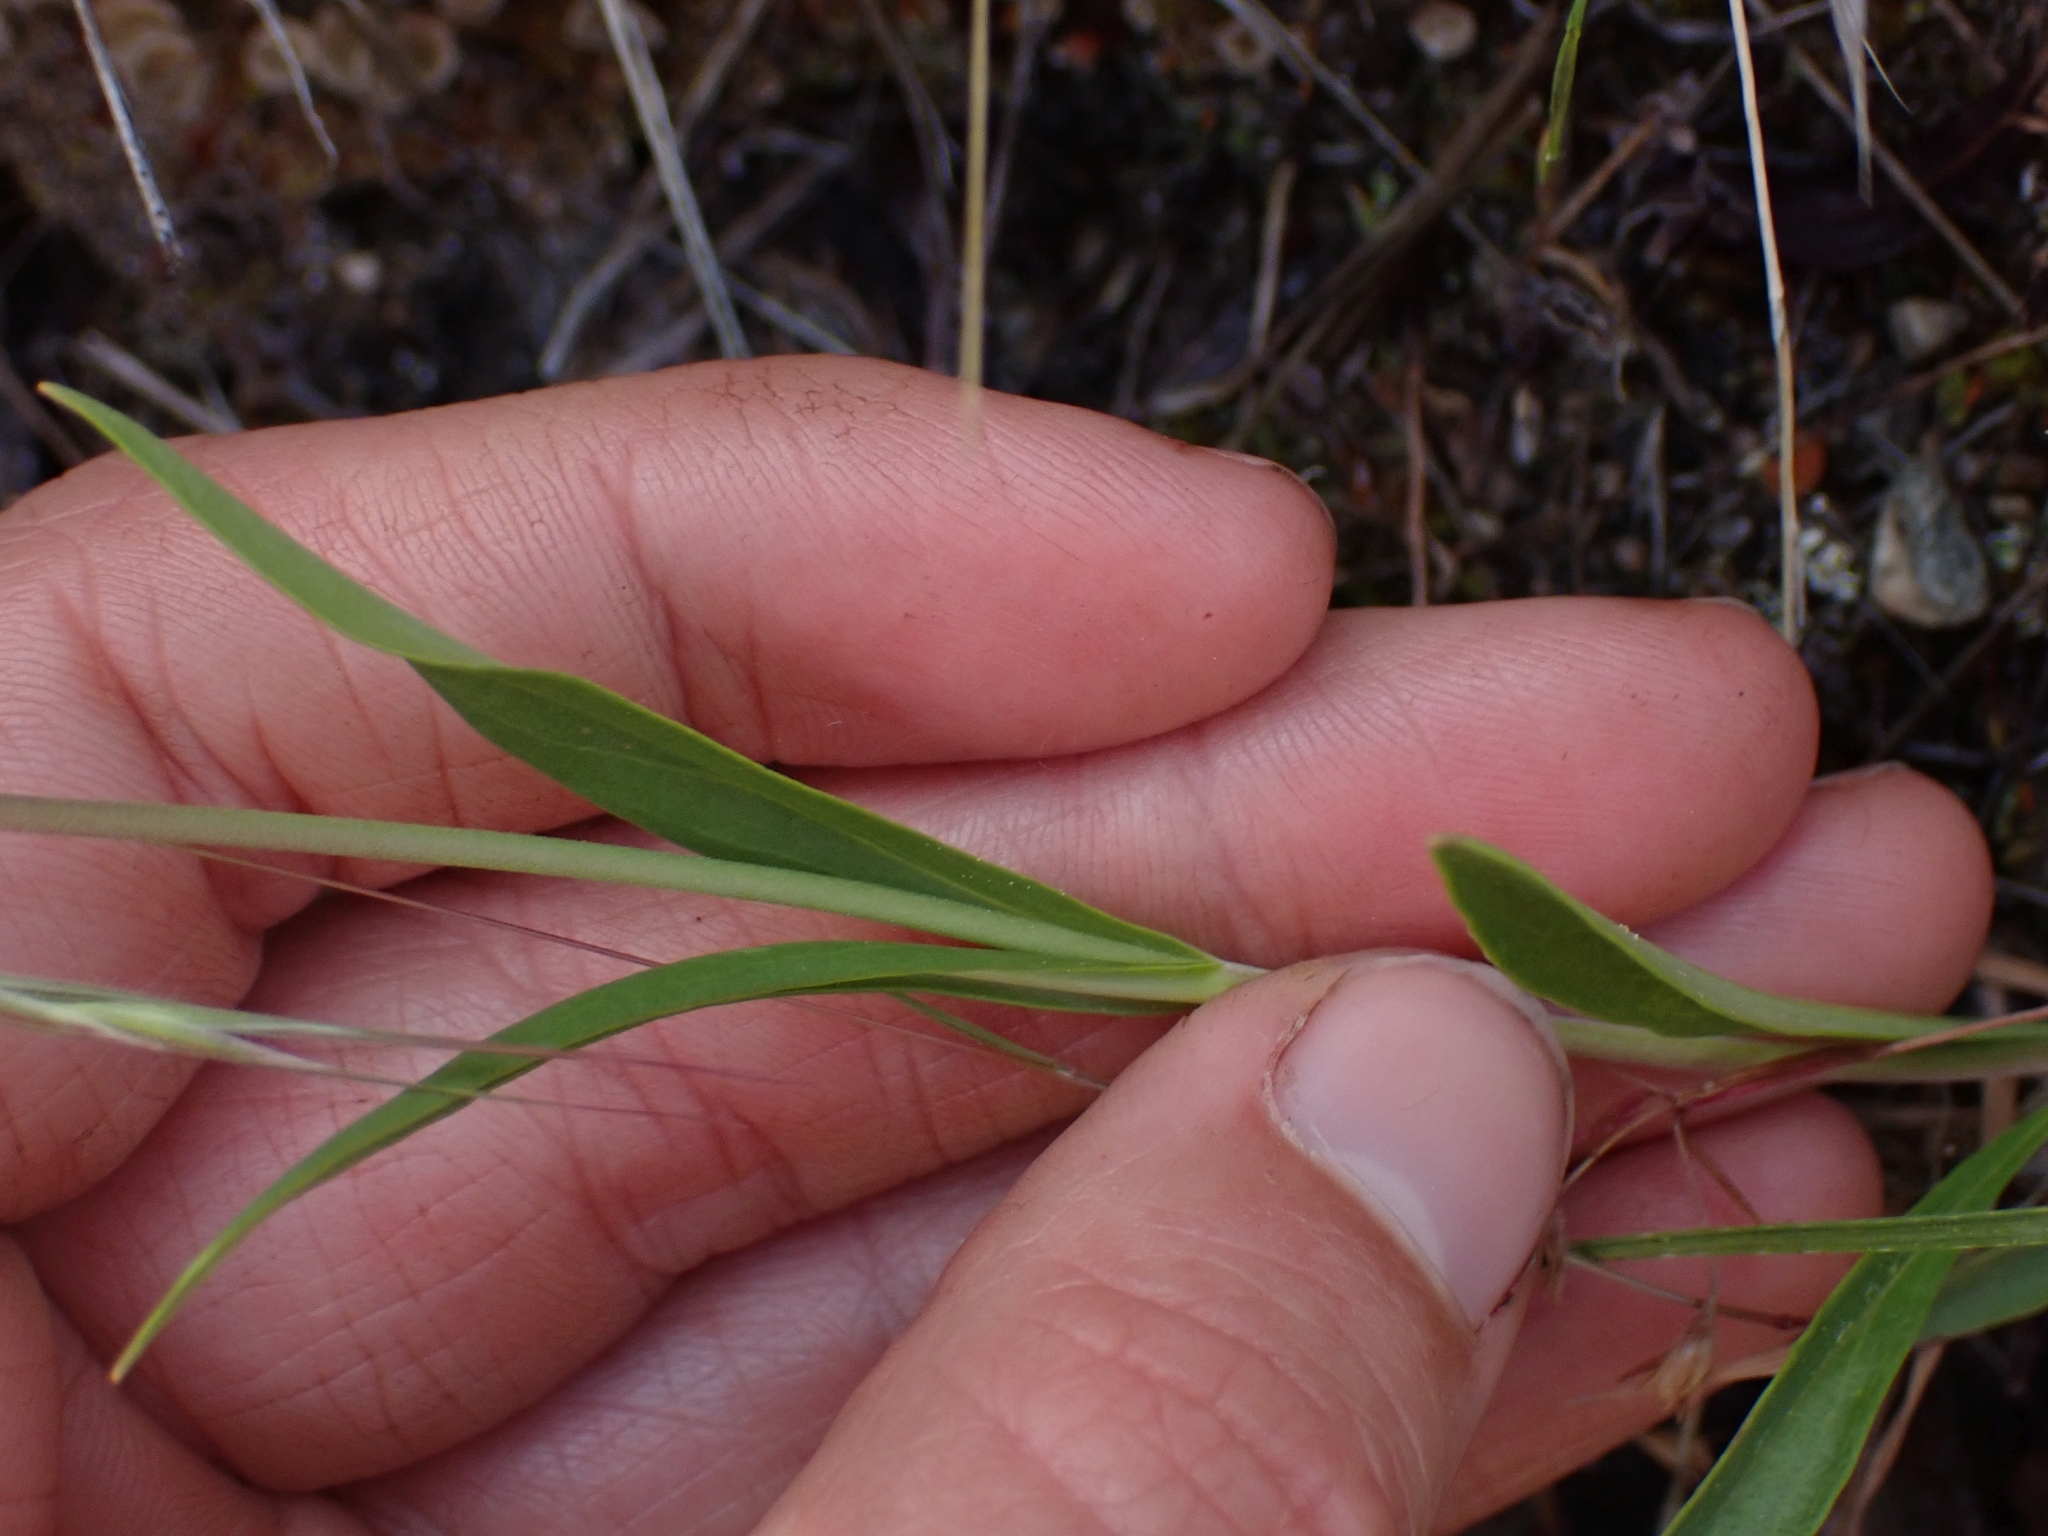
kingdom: Plantae
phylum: Tracheophyta
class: Magnoliopsida
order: Lamiales
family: Plantaginaceae
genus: Penstemon
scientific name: Penstemon confertus
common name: Lesser yellow beardtongue
